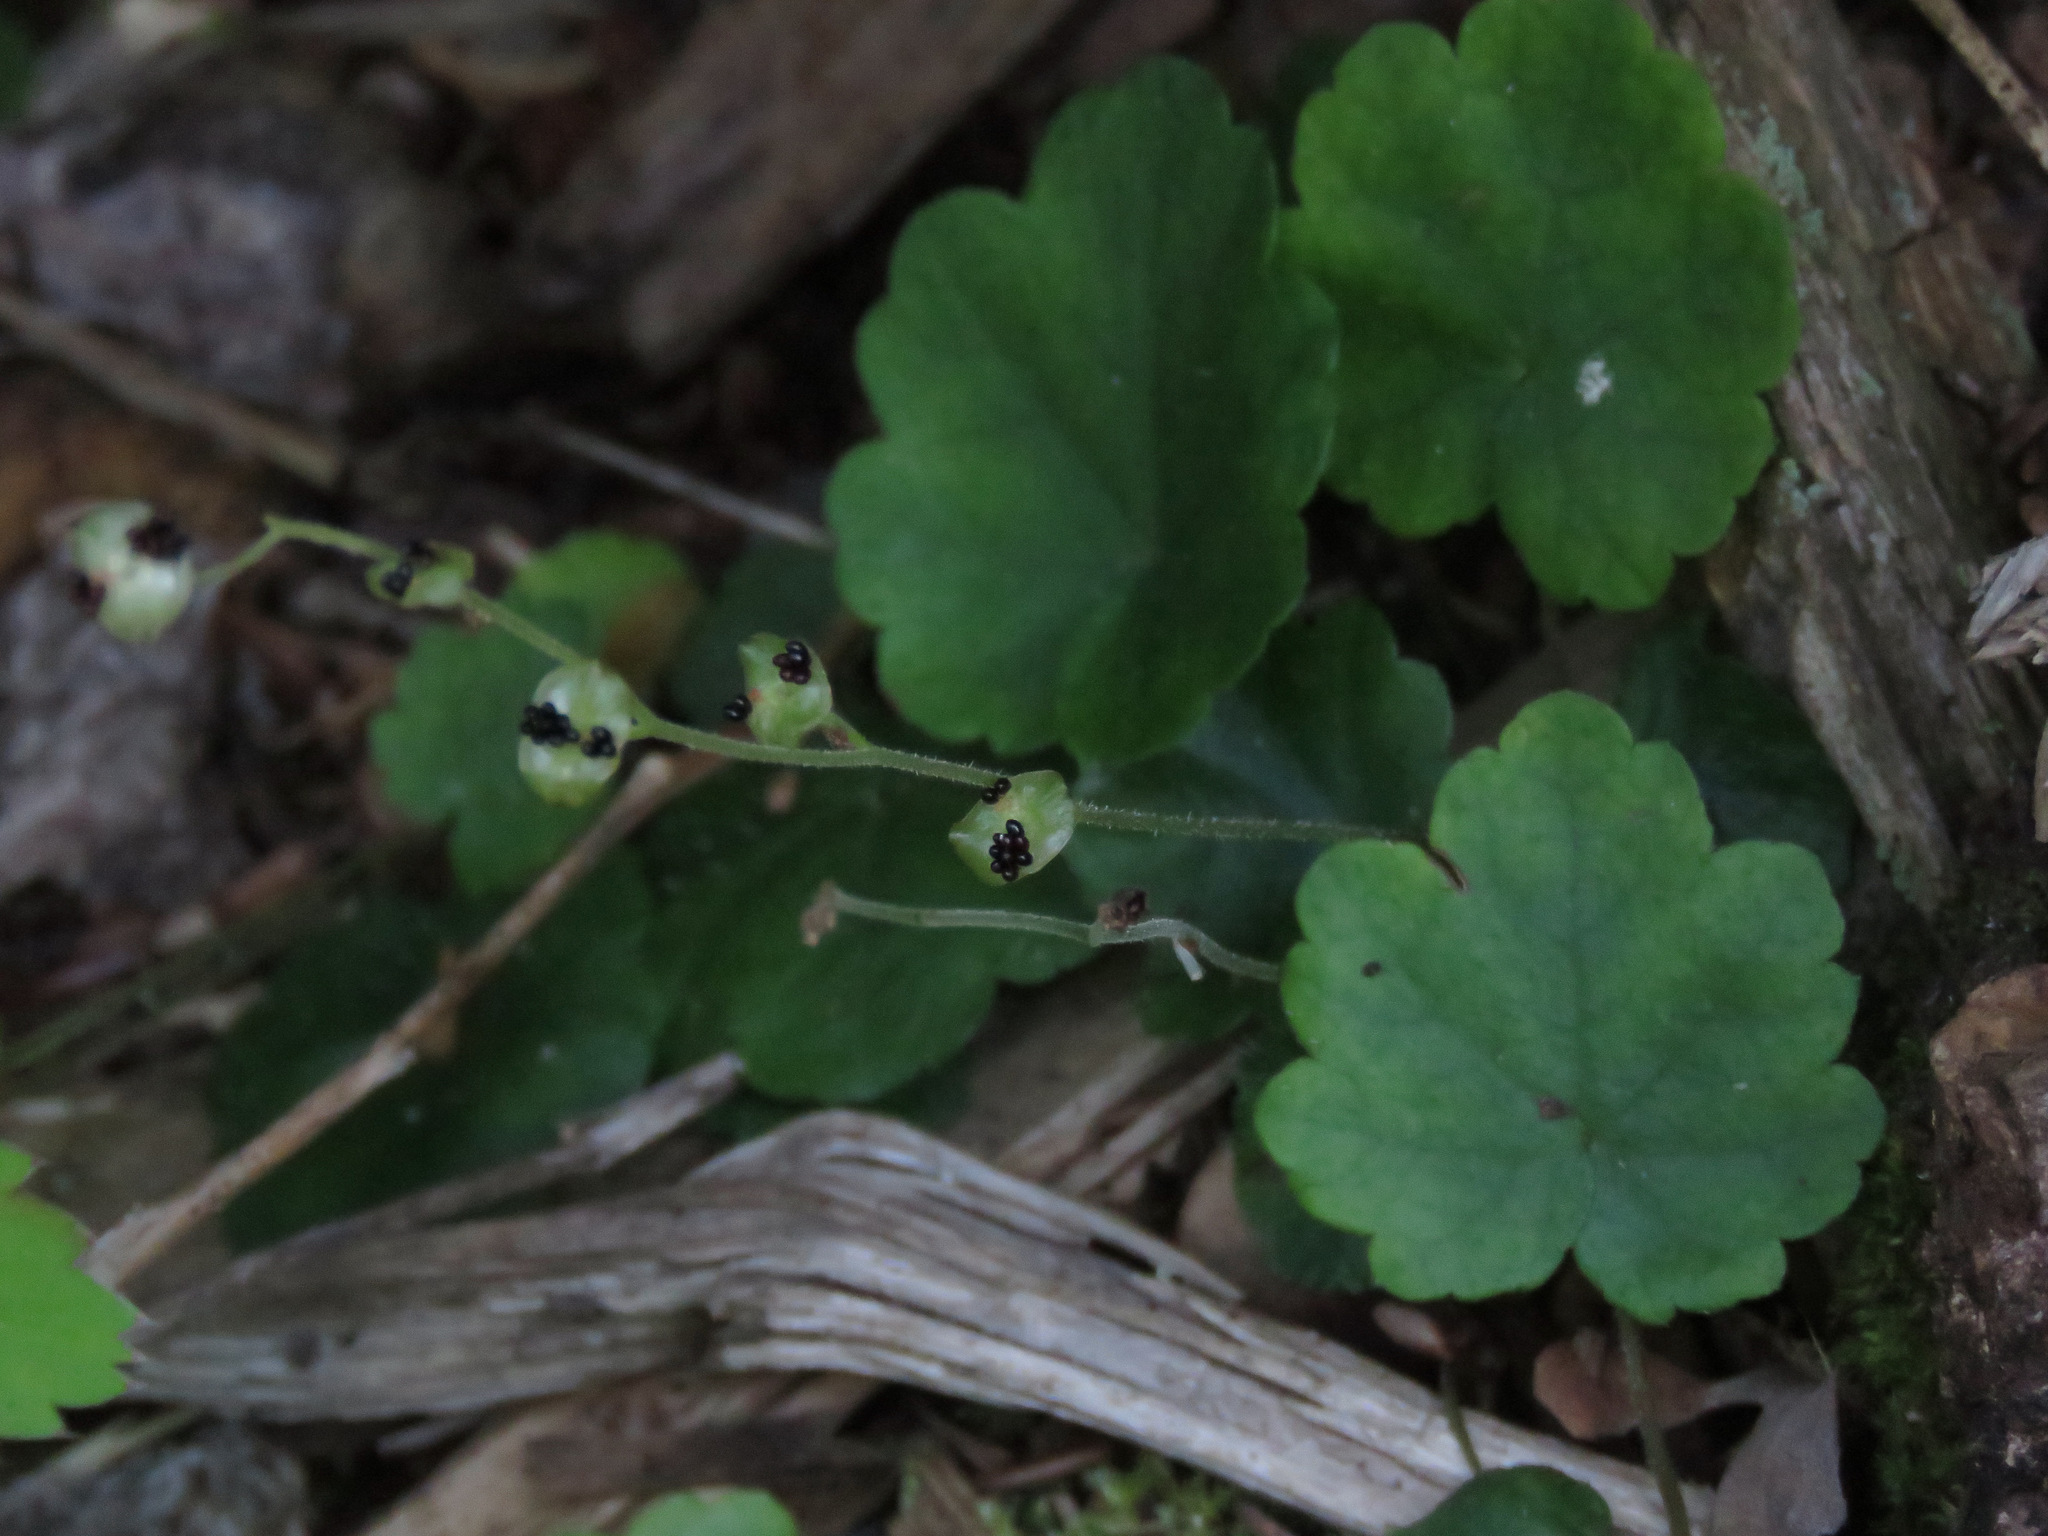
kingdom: Plantae
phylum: Tracheophyta
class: Magnoliopsida
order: Saxifragales
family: Saxifragaceae
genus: Mitella
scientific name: Mitella nuda
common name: Bare-stemmed bishop's-cap
